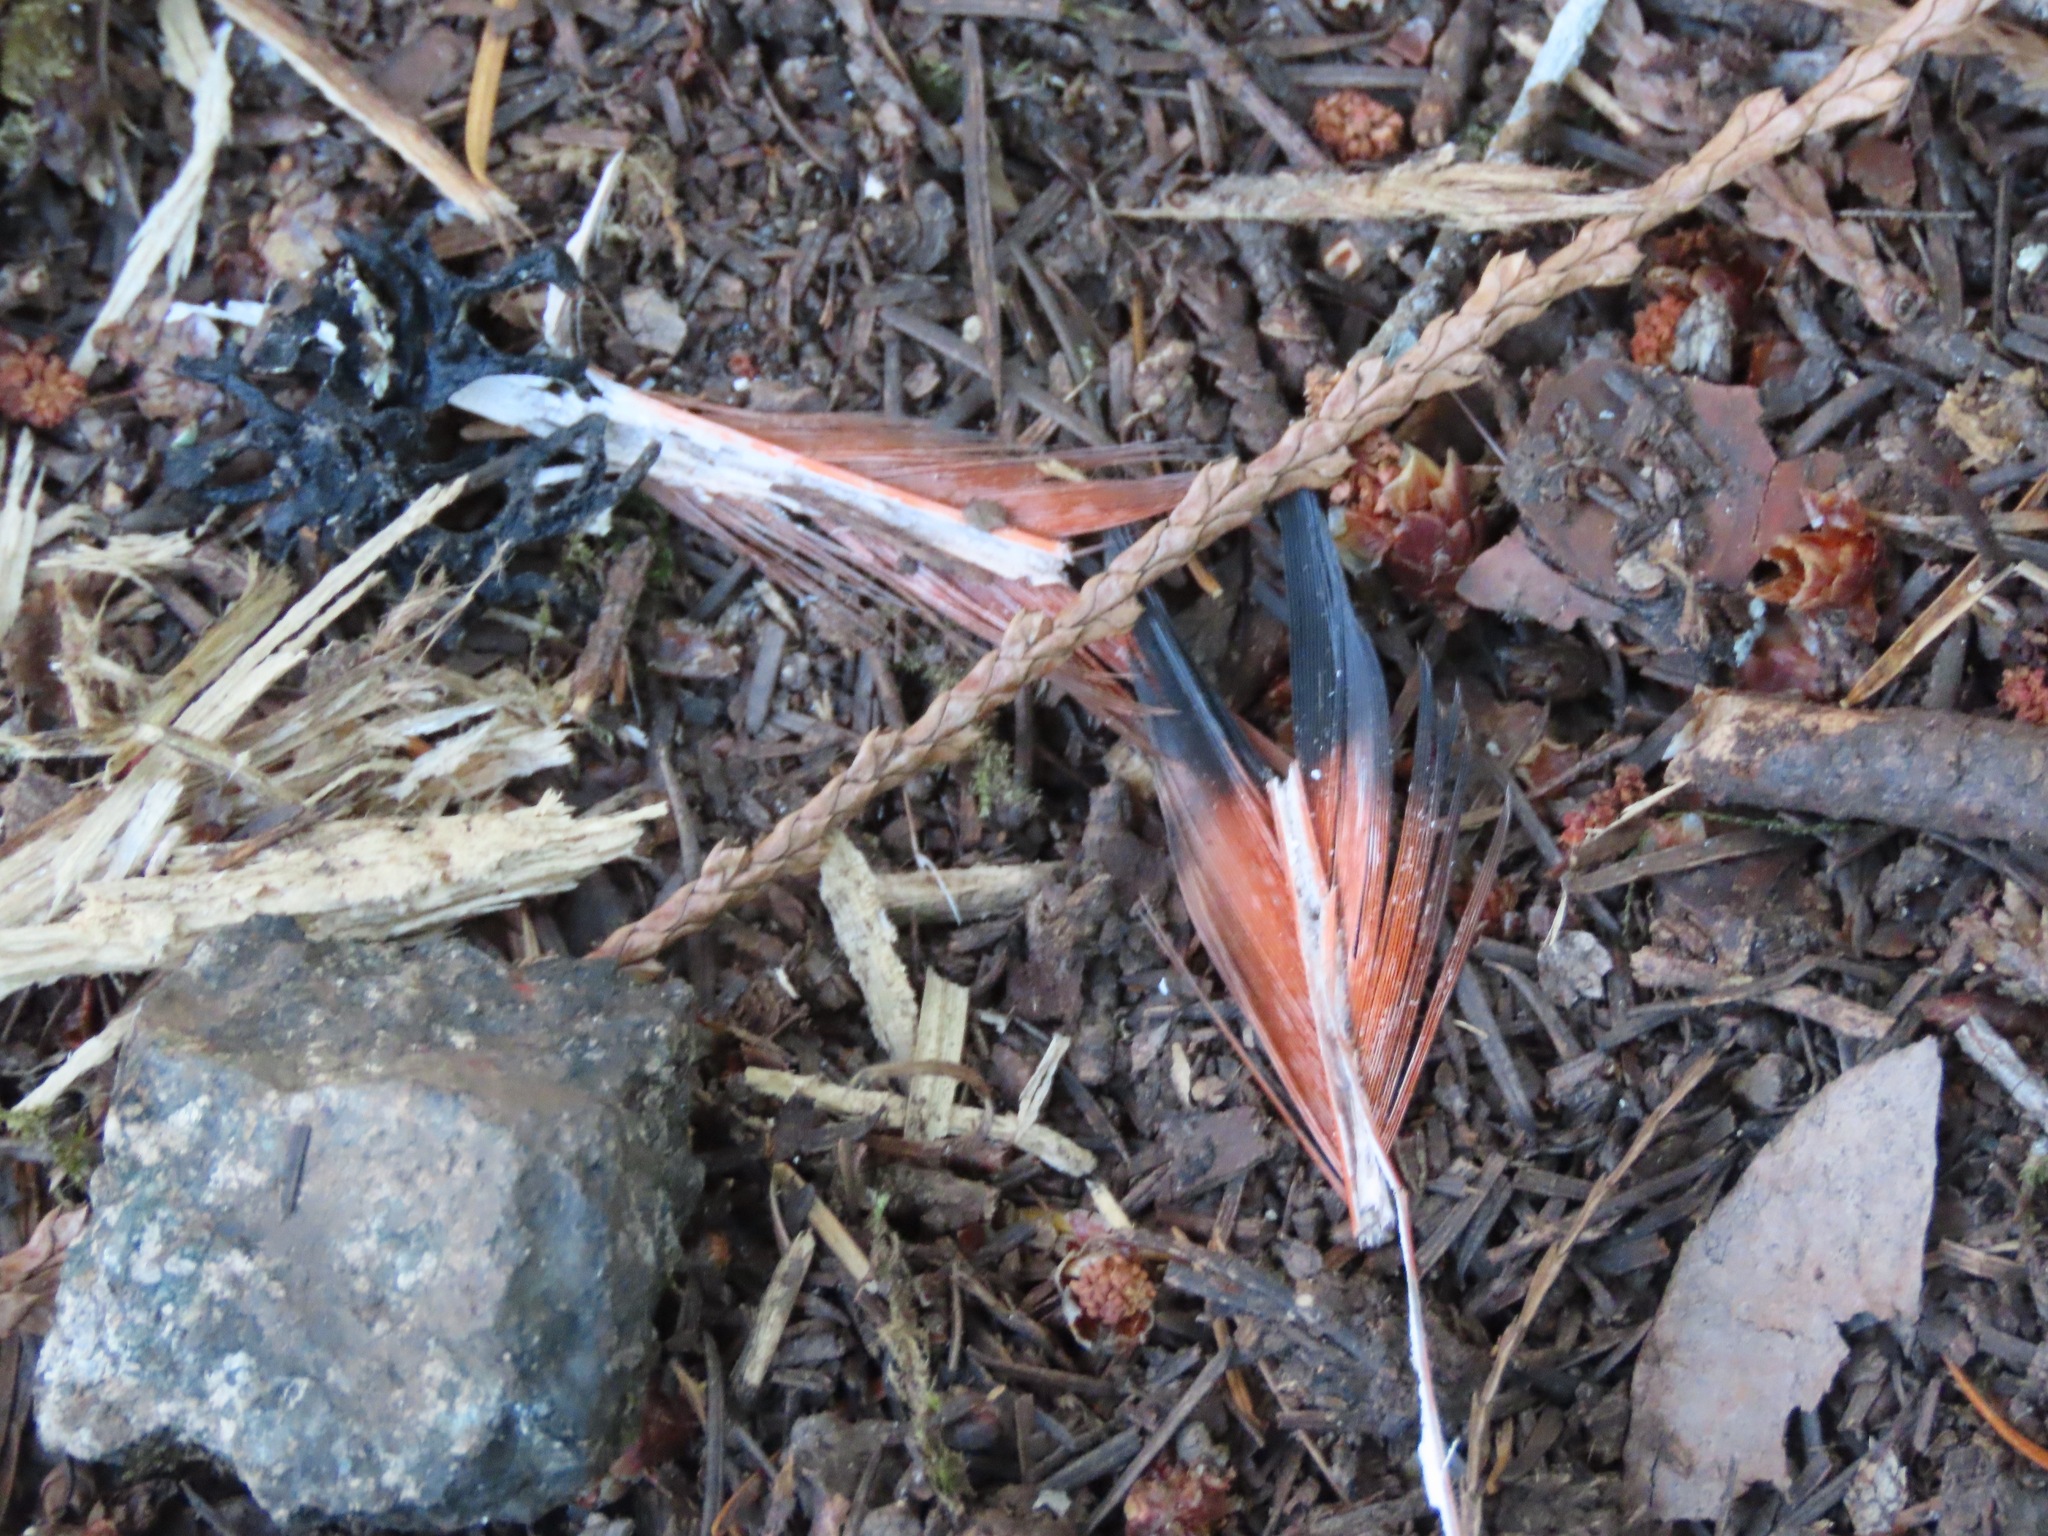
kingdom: Animalia
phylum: Chordata
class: Aves
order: Piciformes
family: Picidae
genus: Colaptes
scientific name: Colaptes auratus
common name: Northern flicker
